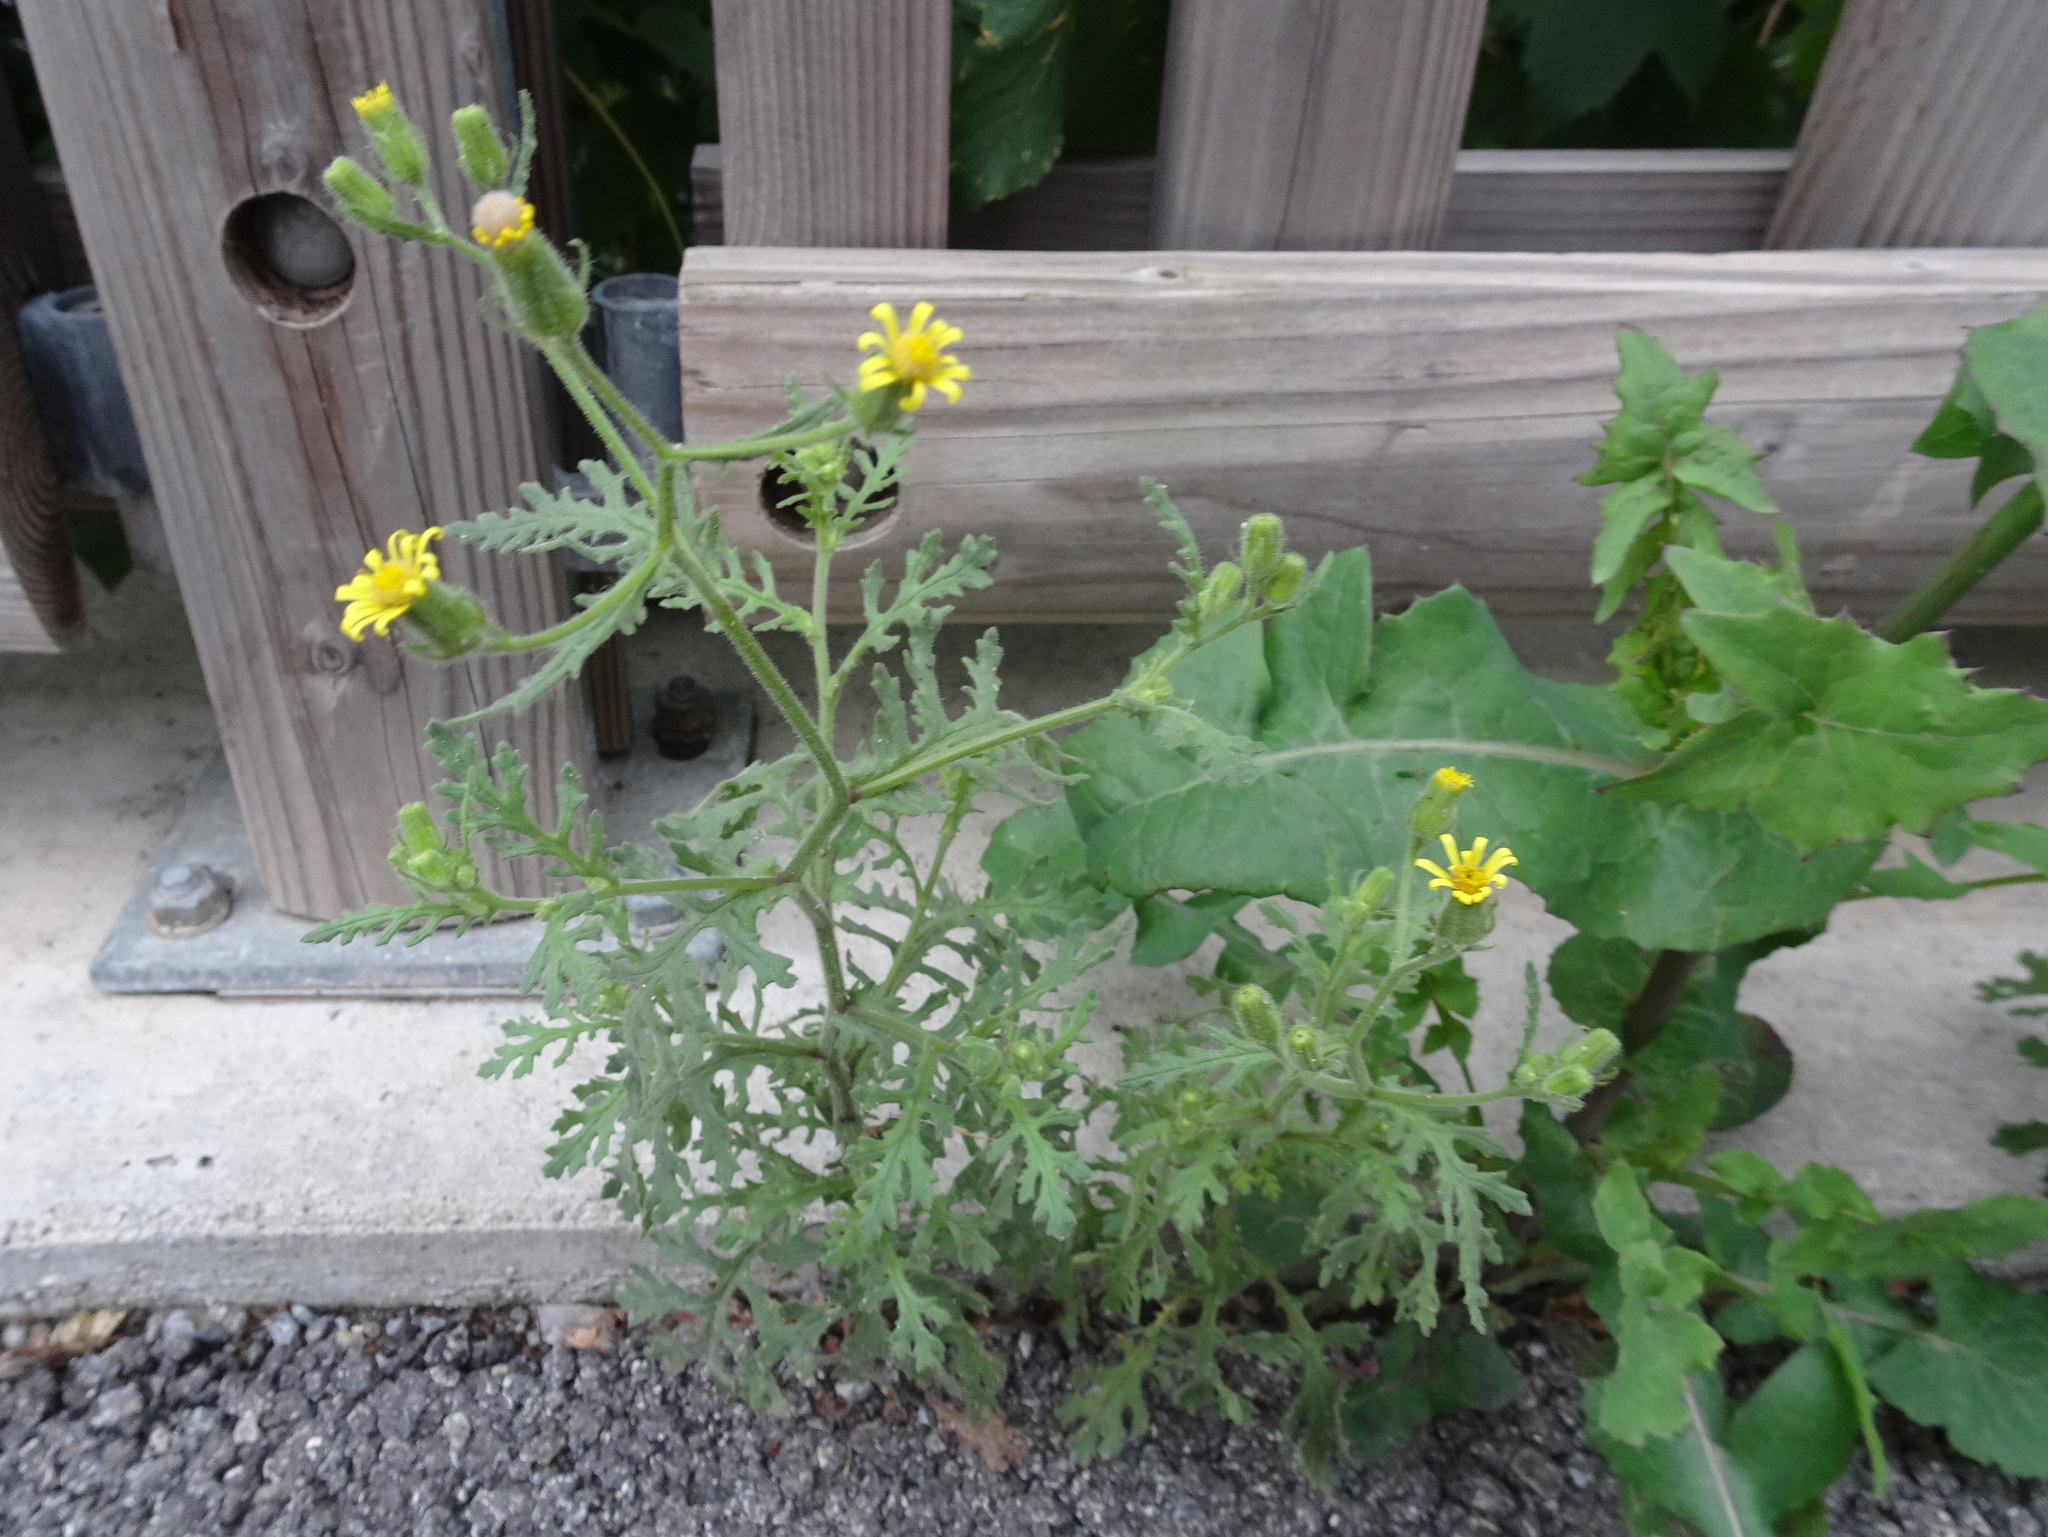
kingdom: Plantae
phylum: Tracheophyta
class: Magnoliopsida
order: Asterales
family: Asteraceae
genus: Senecio
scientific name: Senecio viscosus
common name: Sticky groundsel
